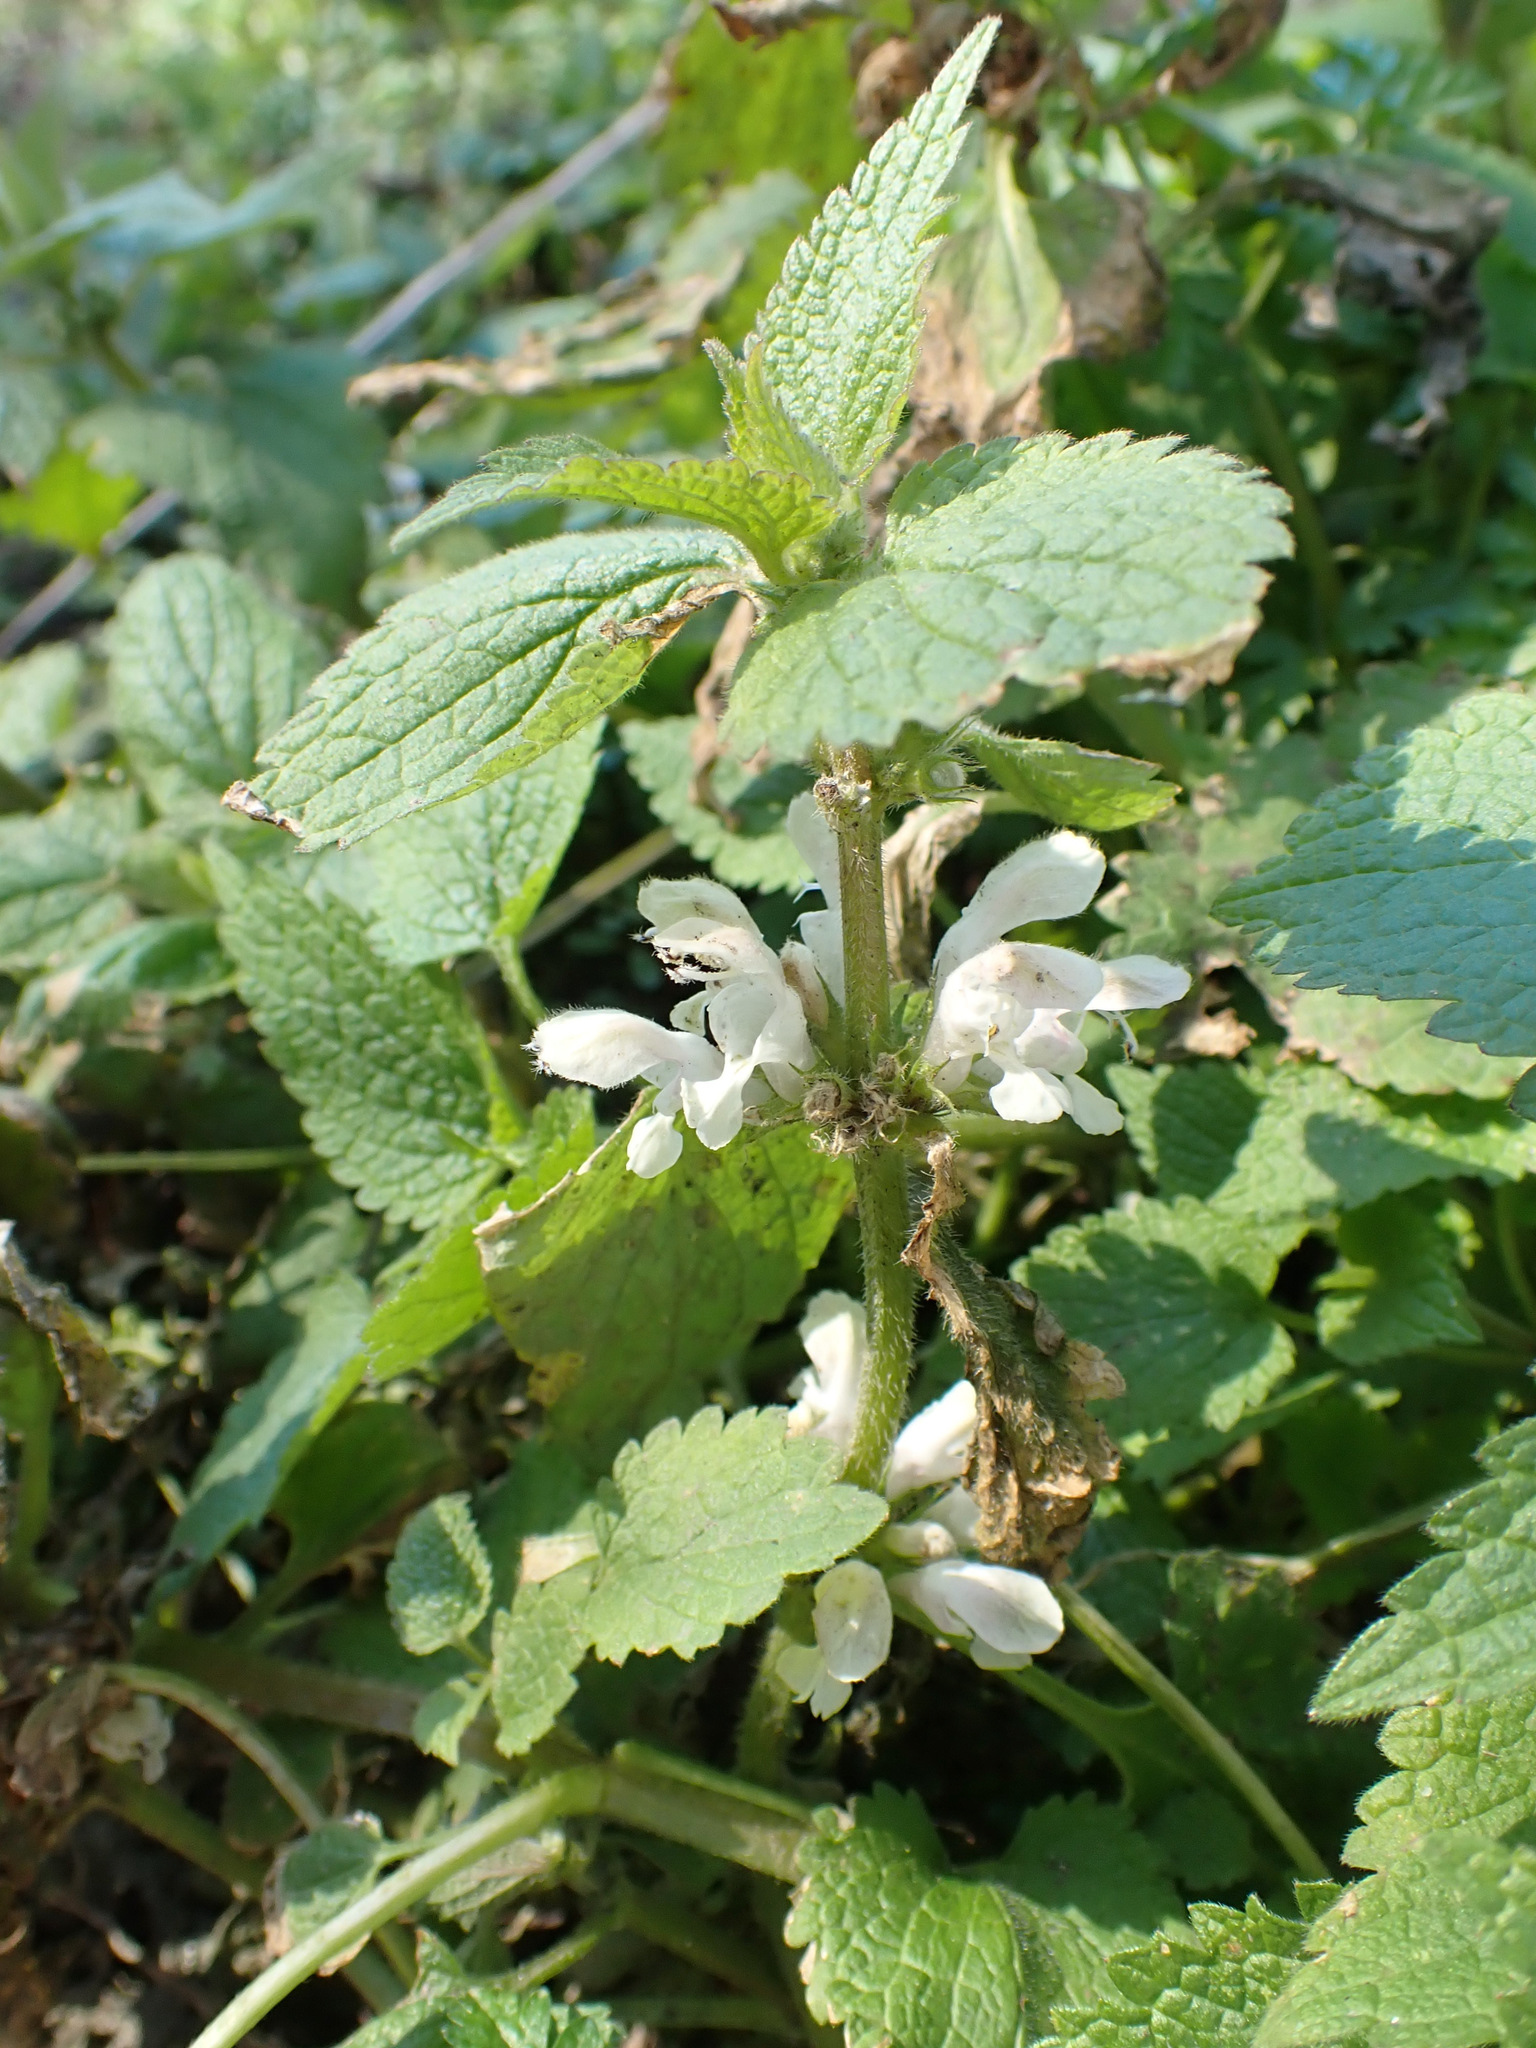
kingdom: Plantae
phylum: Tracheophyta
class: Magnoliopsida
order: Lamiales
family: Lamiaceae
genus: Lamium
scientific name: Lamium album
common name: White dead-nettle
